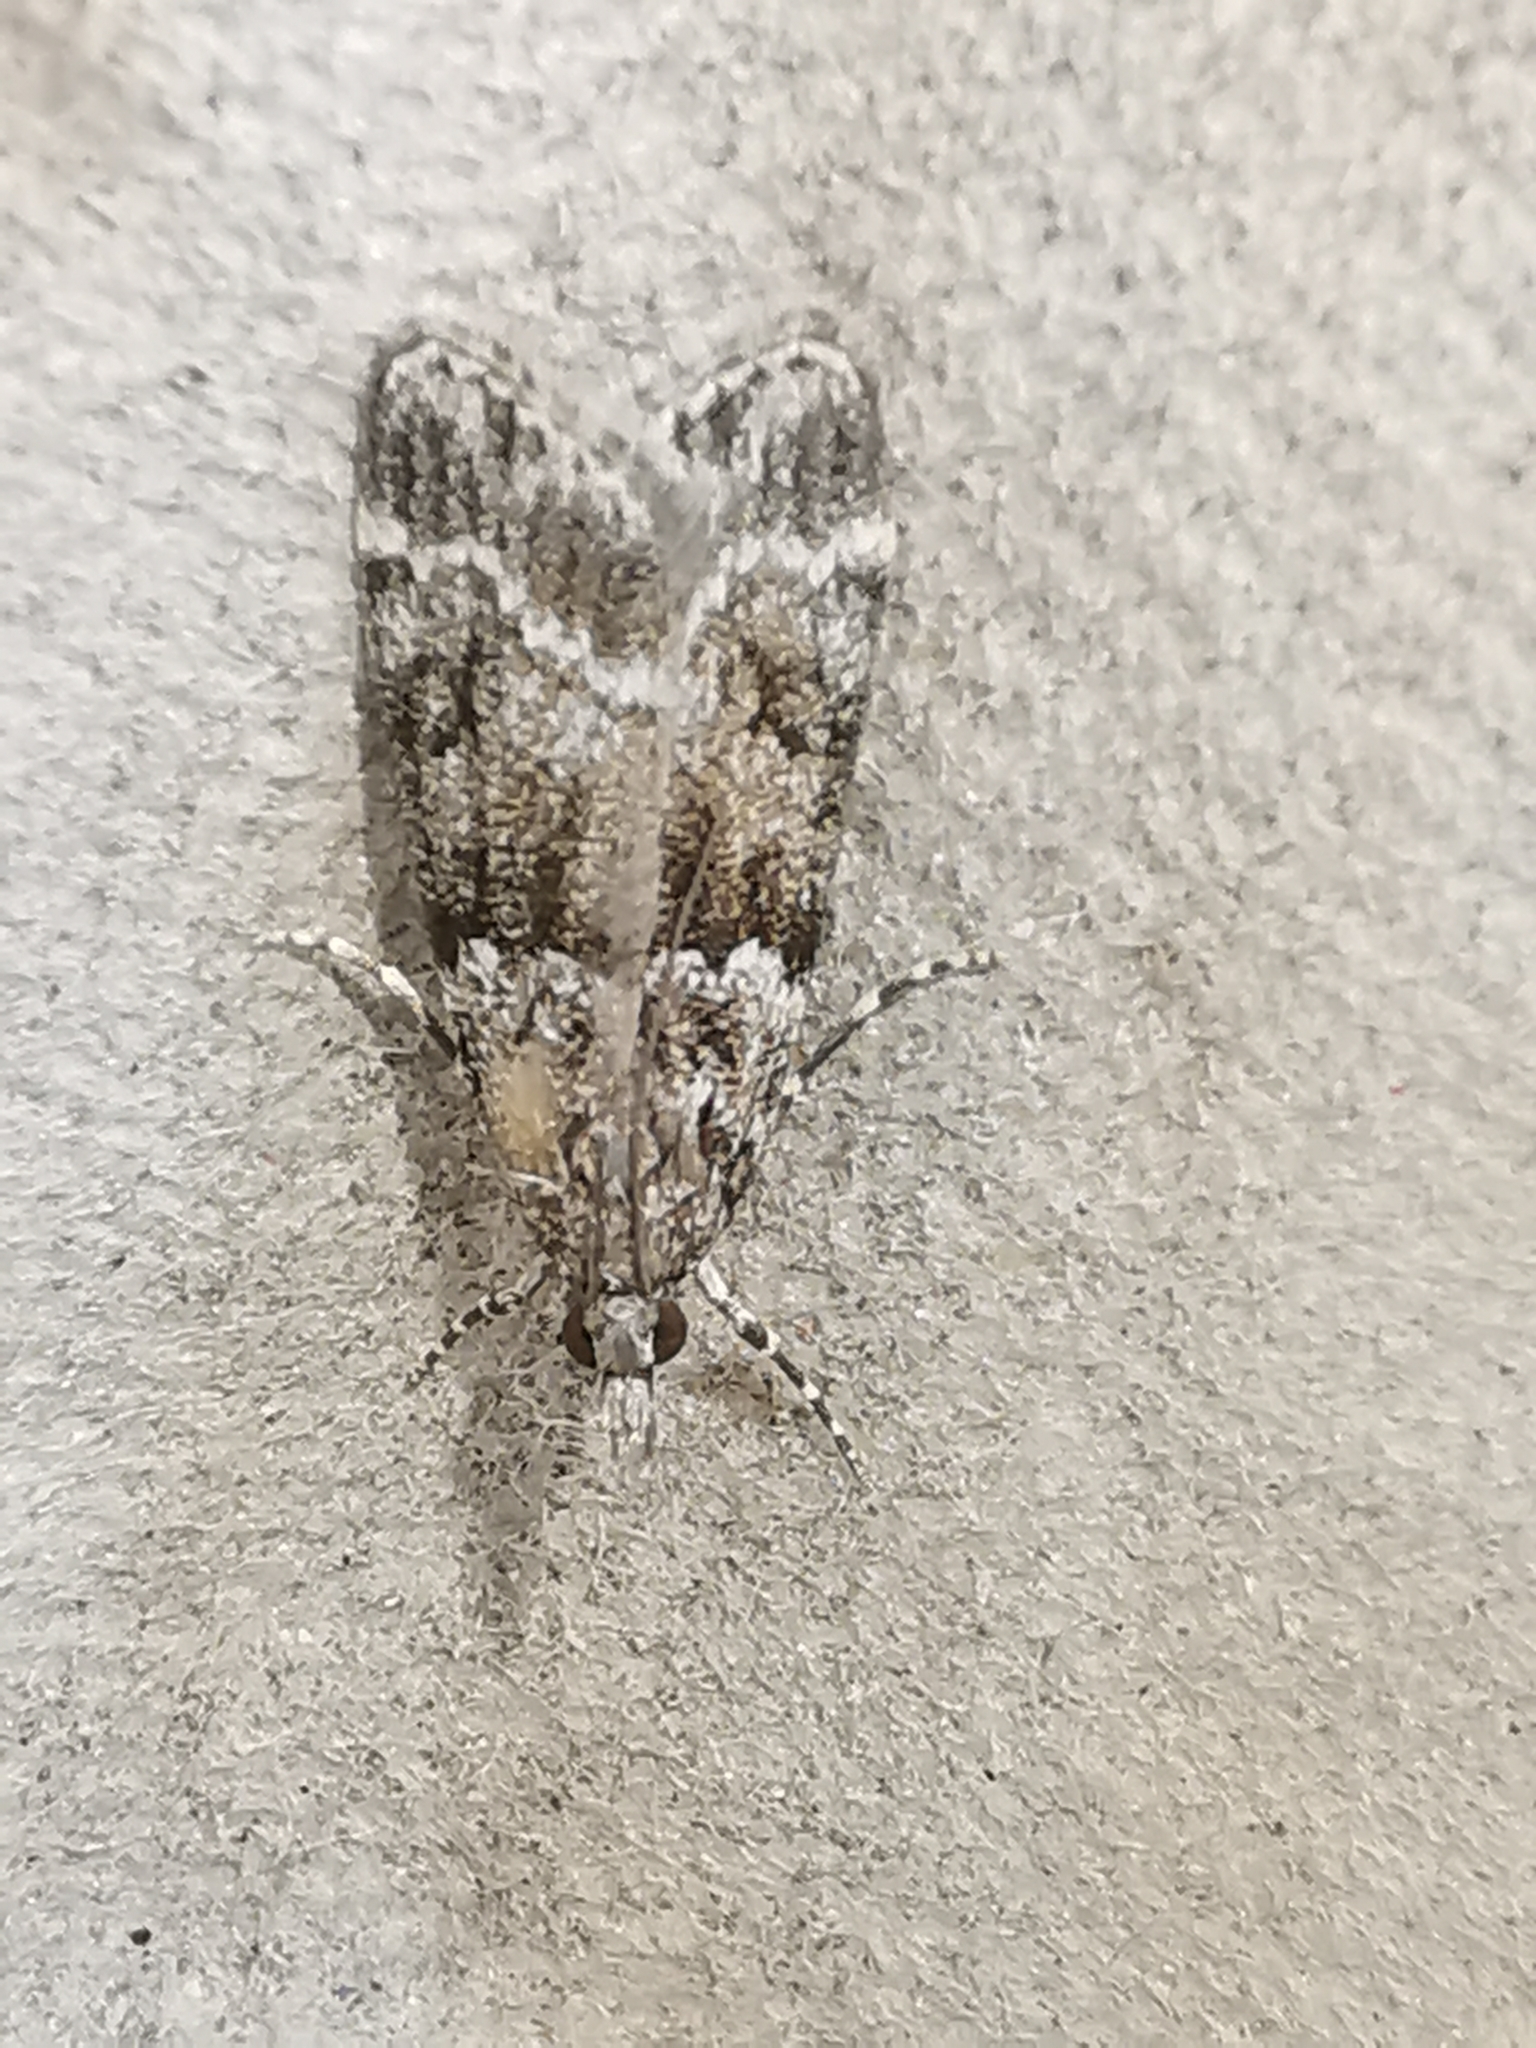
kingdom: Animalia
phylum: Arthropoda
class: Insecta
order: Lepidoptera
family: Crambidae
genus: Eudonia
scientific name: Eudonia mercurella
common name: Small grey
